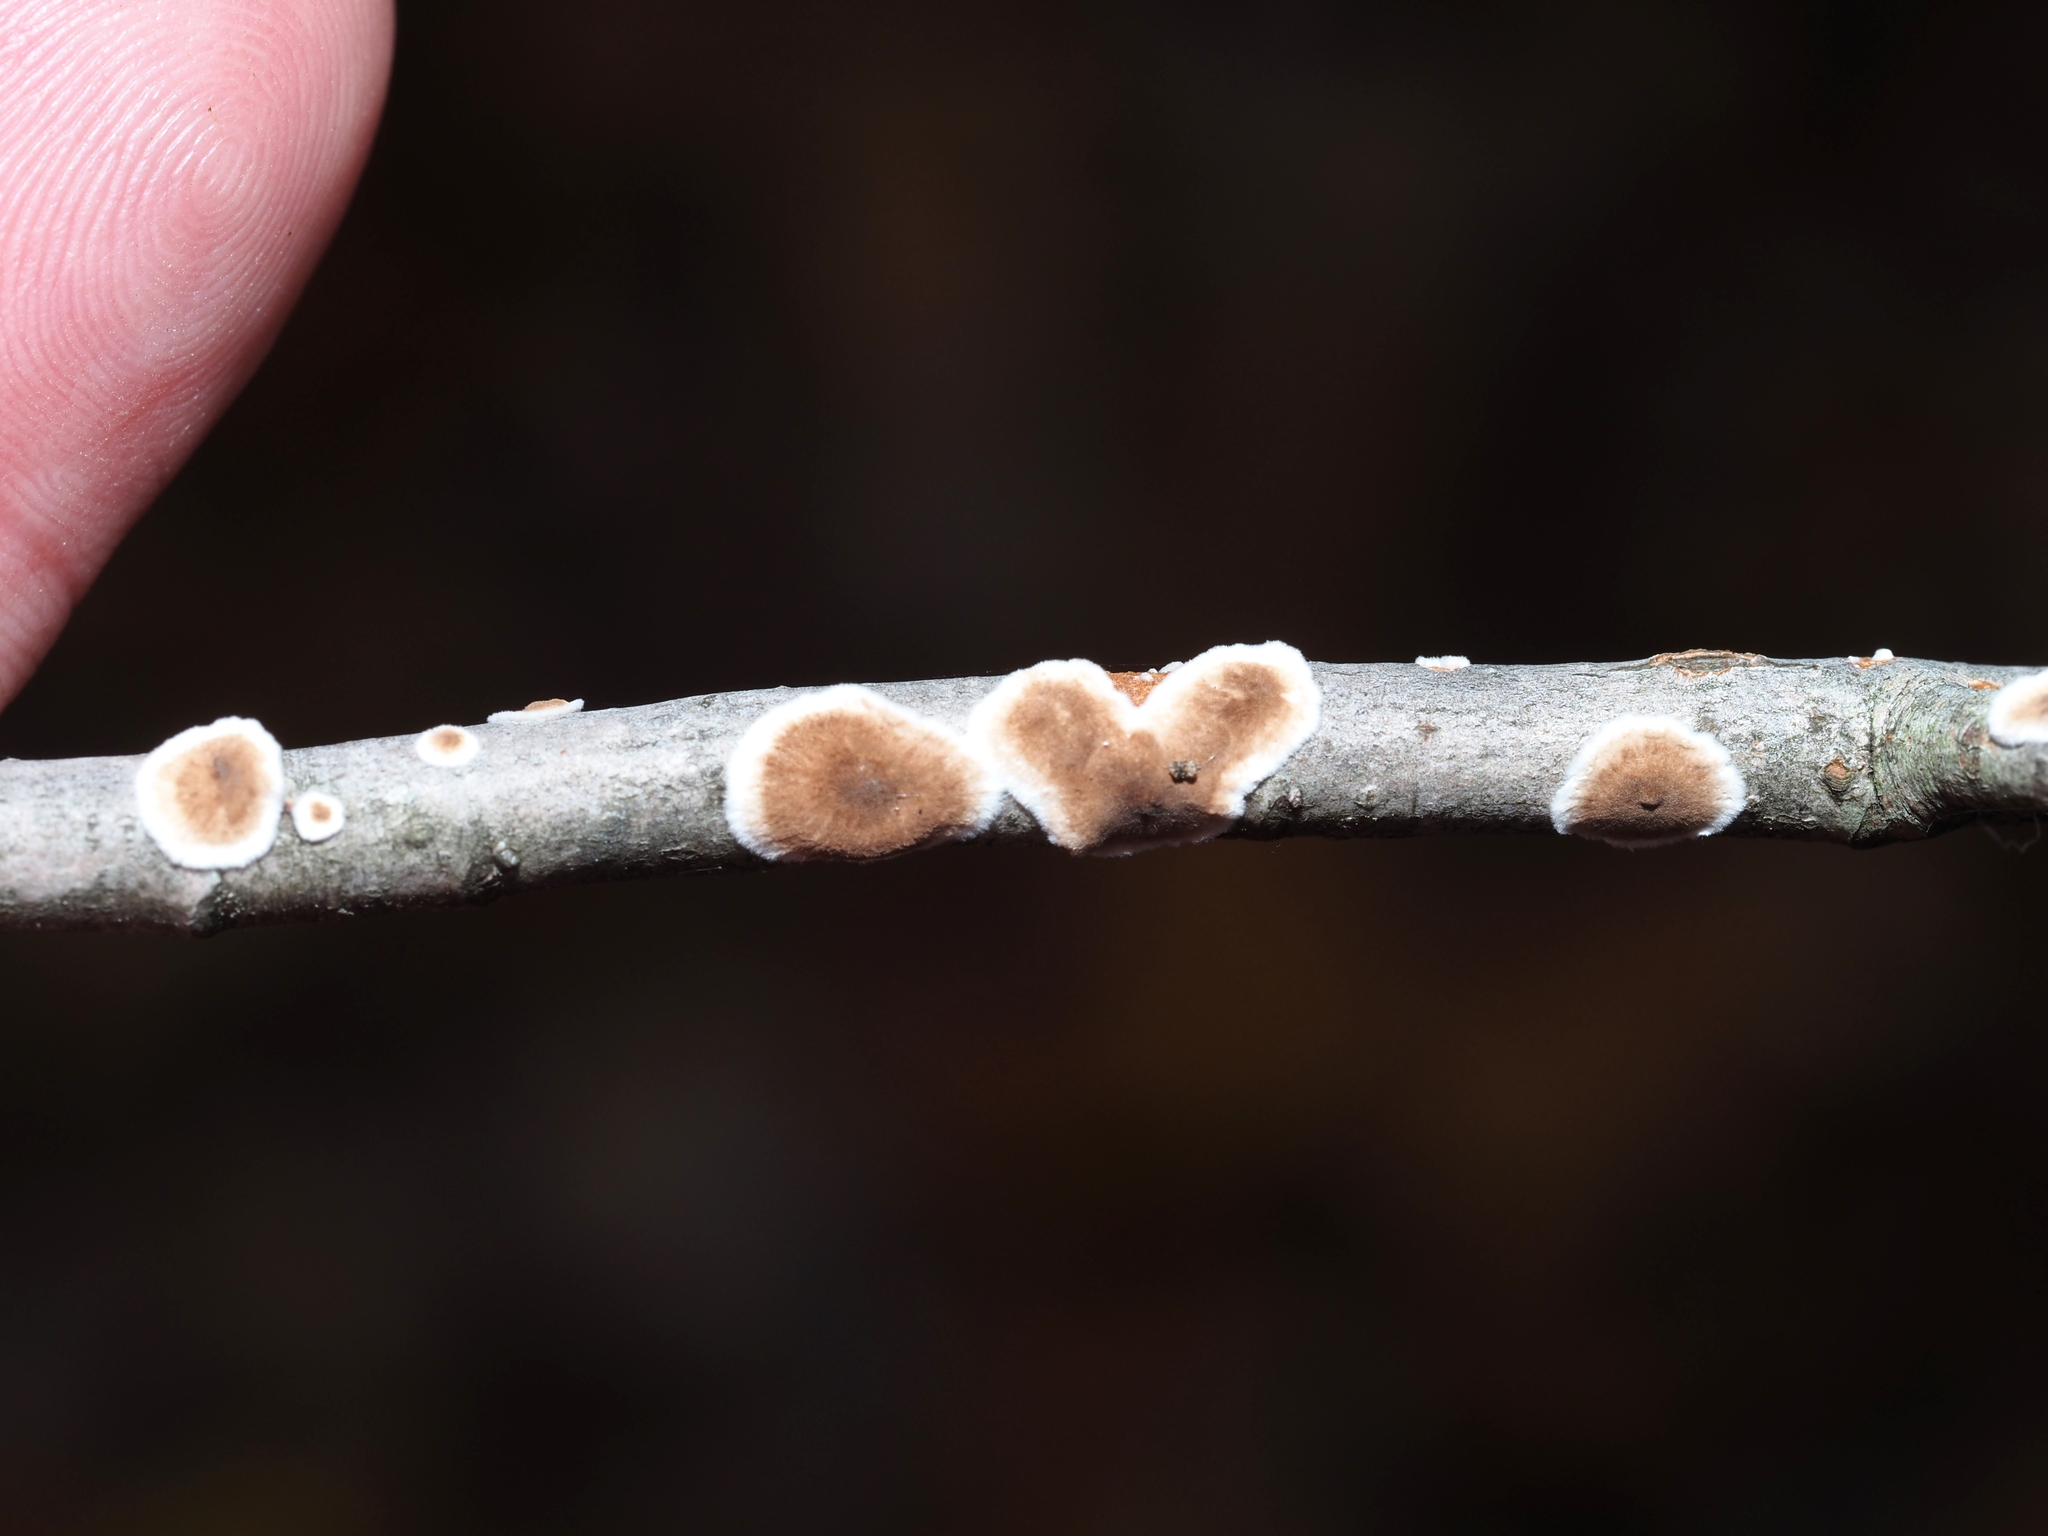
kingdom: Fungi
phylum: Basidiomycota
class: Agaricomycetes
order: Russulales
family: Peniophoraceae
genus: Peniophora
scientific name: Peniophora albobadia
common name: Giraffe spots
